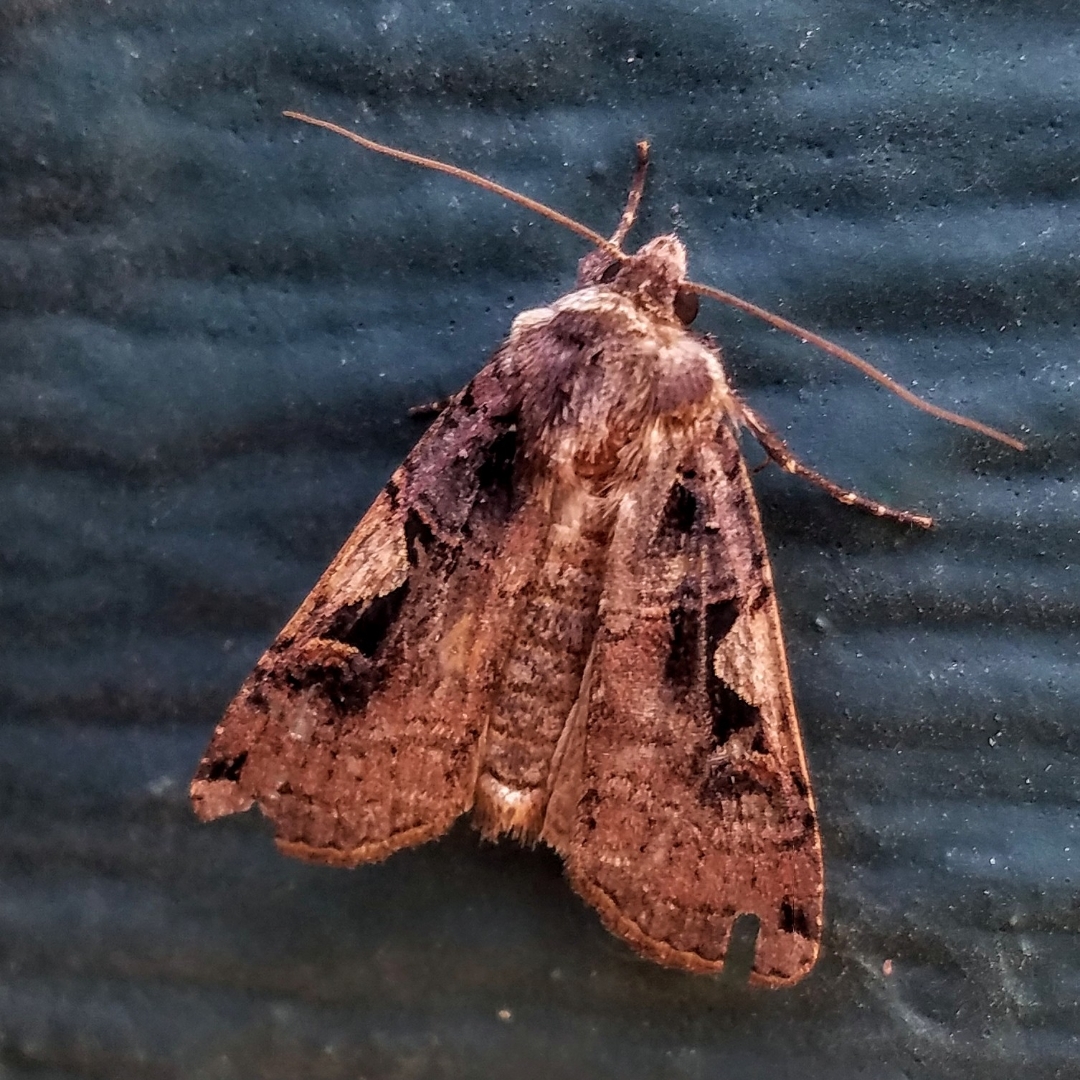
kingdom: Animalia
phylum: Arthropoda
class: Insecta
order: Lepidoptera
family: Noctuidae
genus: Xestia
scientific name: Xestia c-nigrum
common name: Setaceous hebrew character
